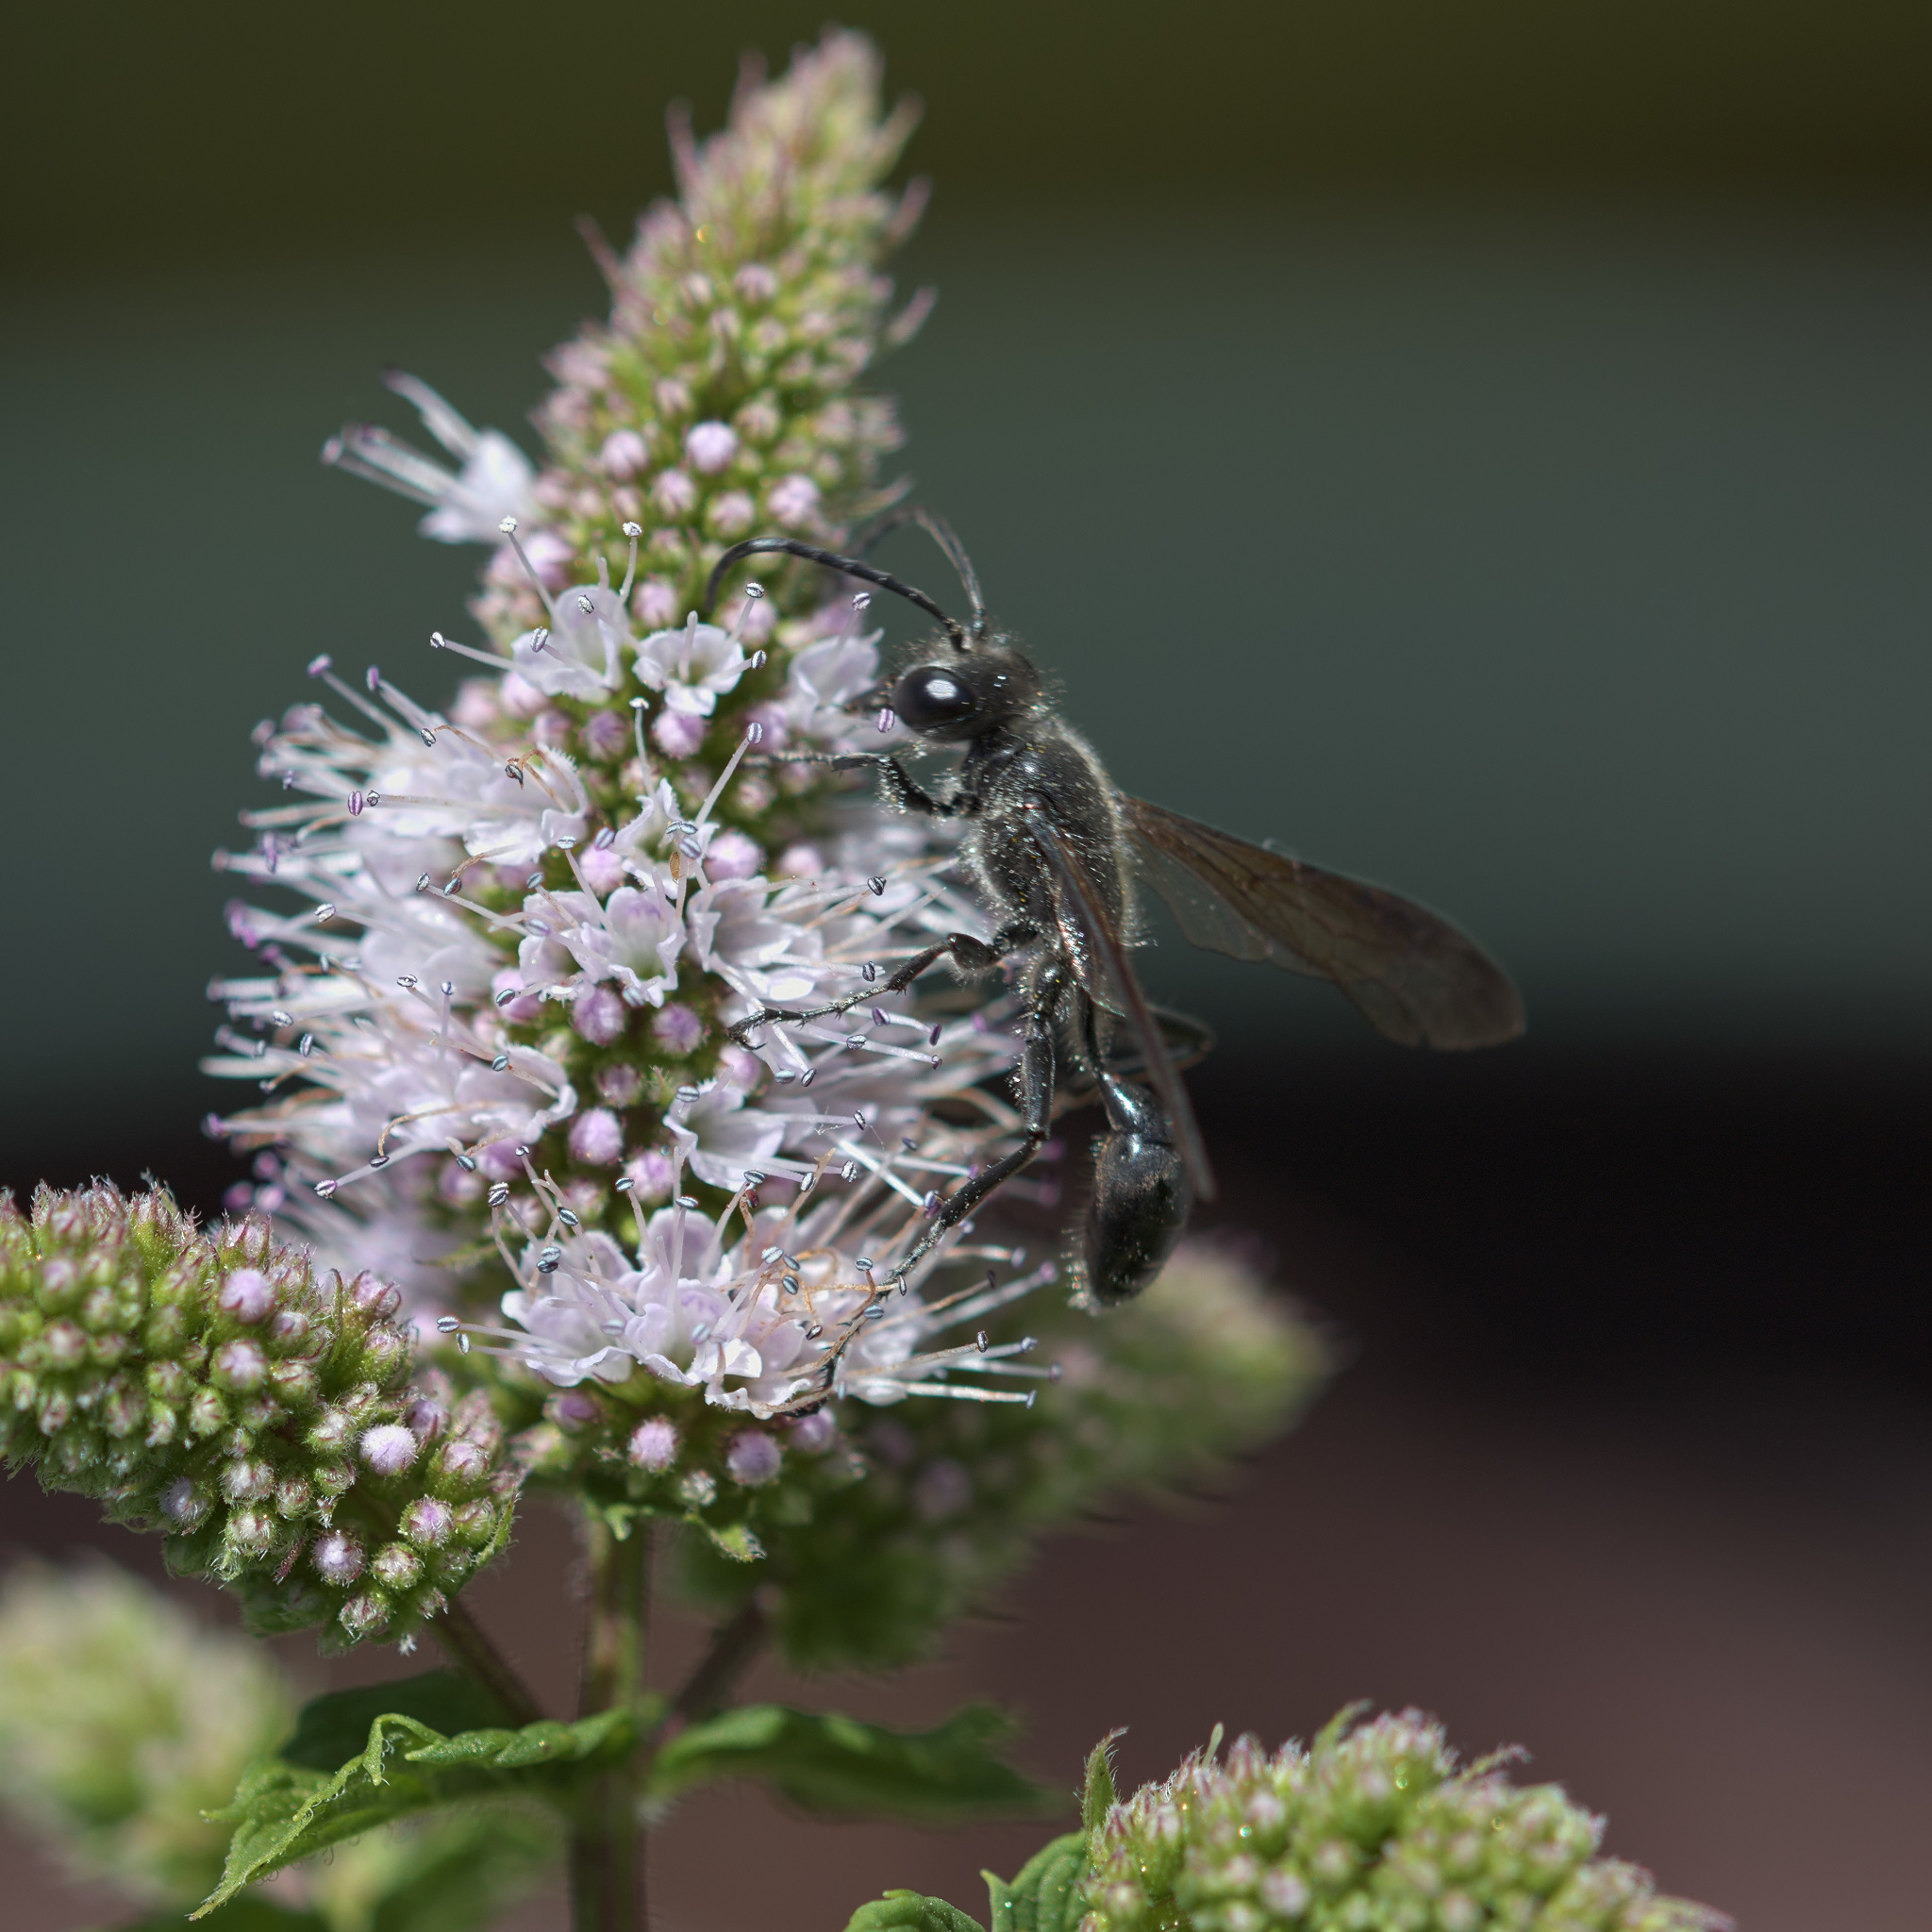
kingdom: Animalia
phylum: Arthropoda
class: Insecta
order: Hymenoptera
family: Sphecidae
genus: Isodontia
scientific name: Isodontia mexicana
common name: Mud dauber
